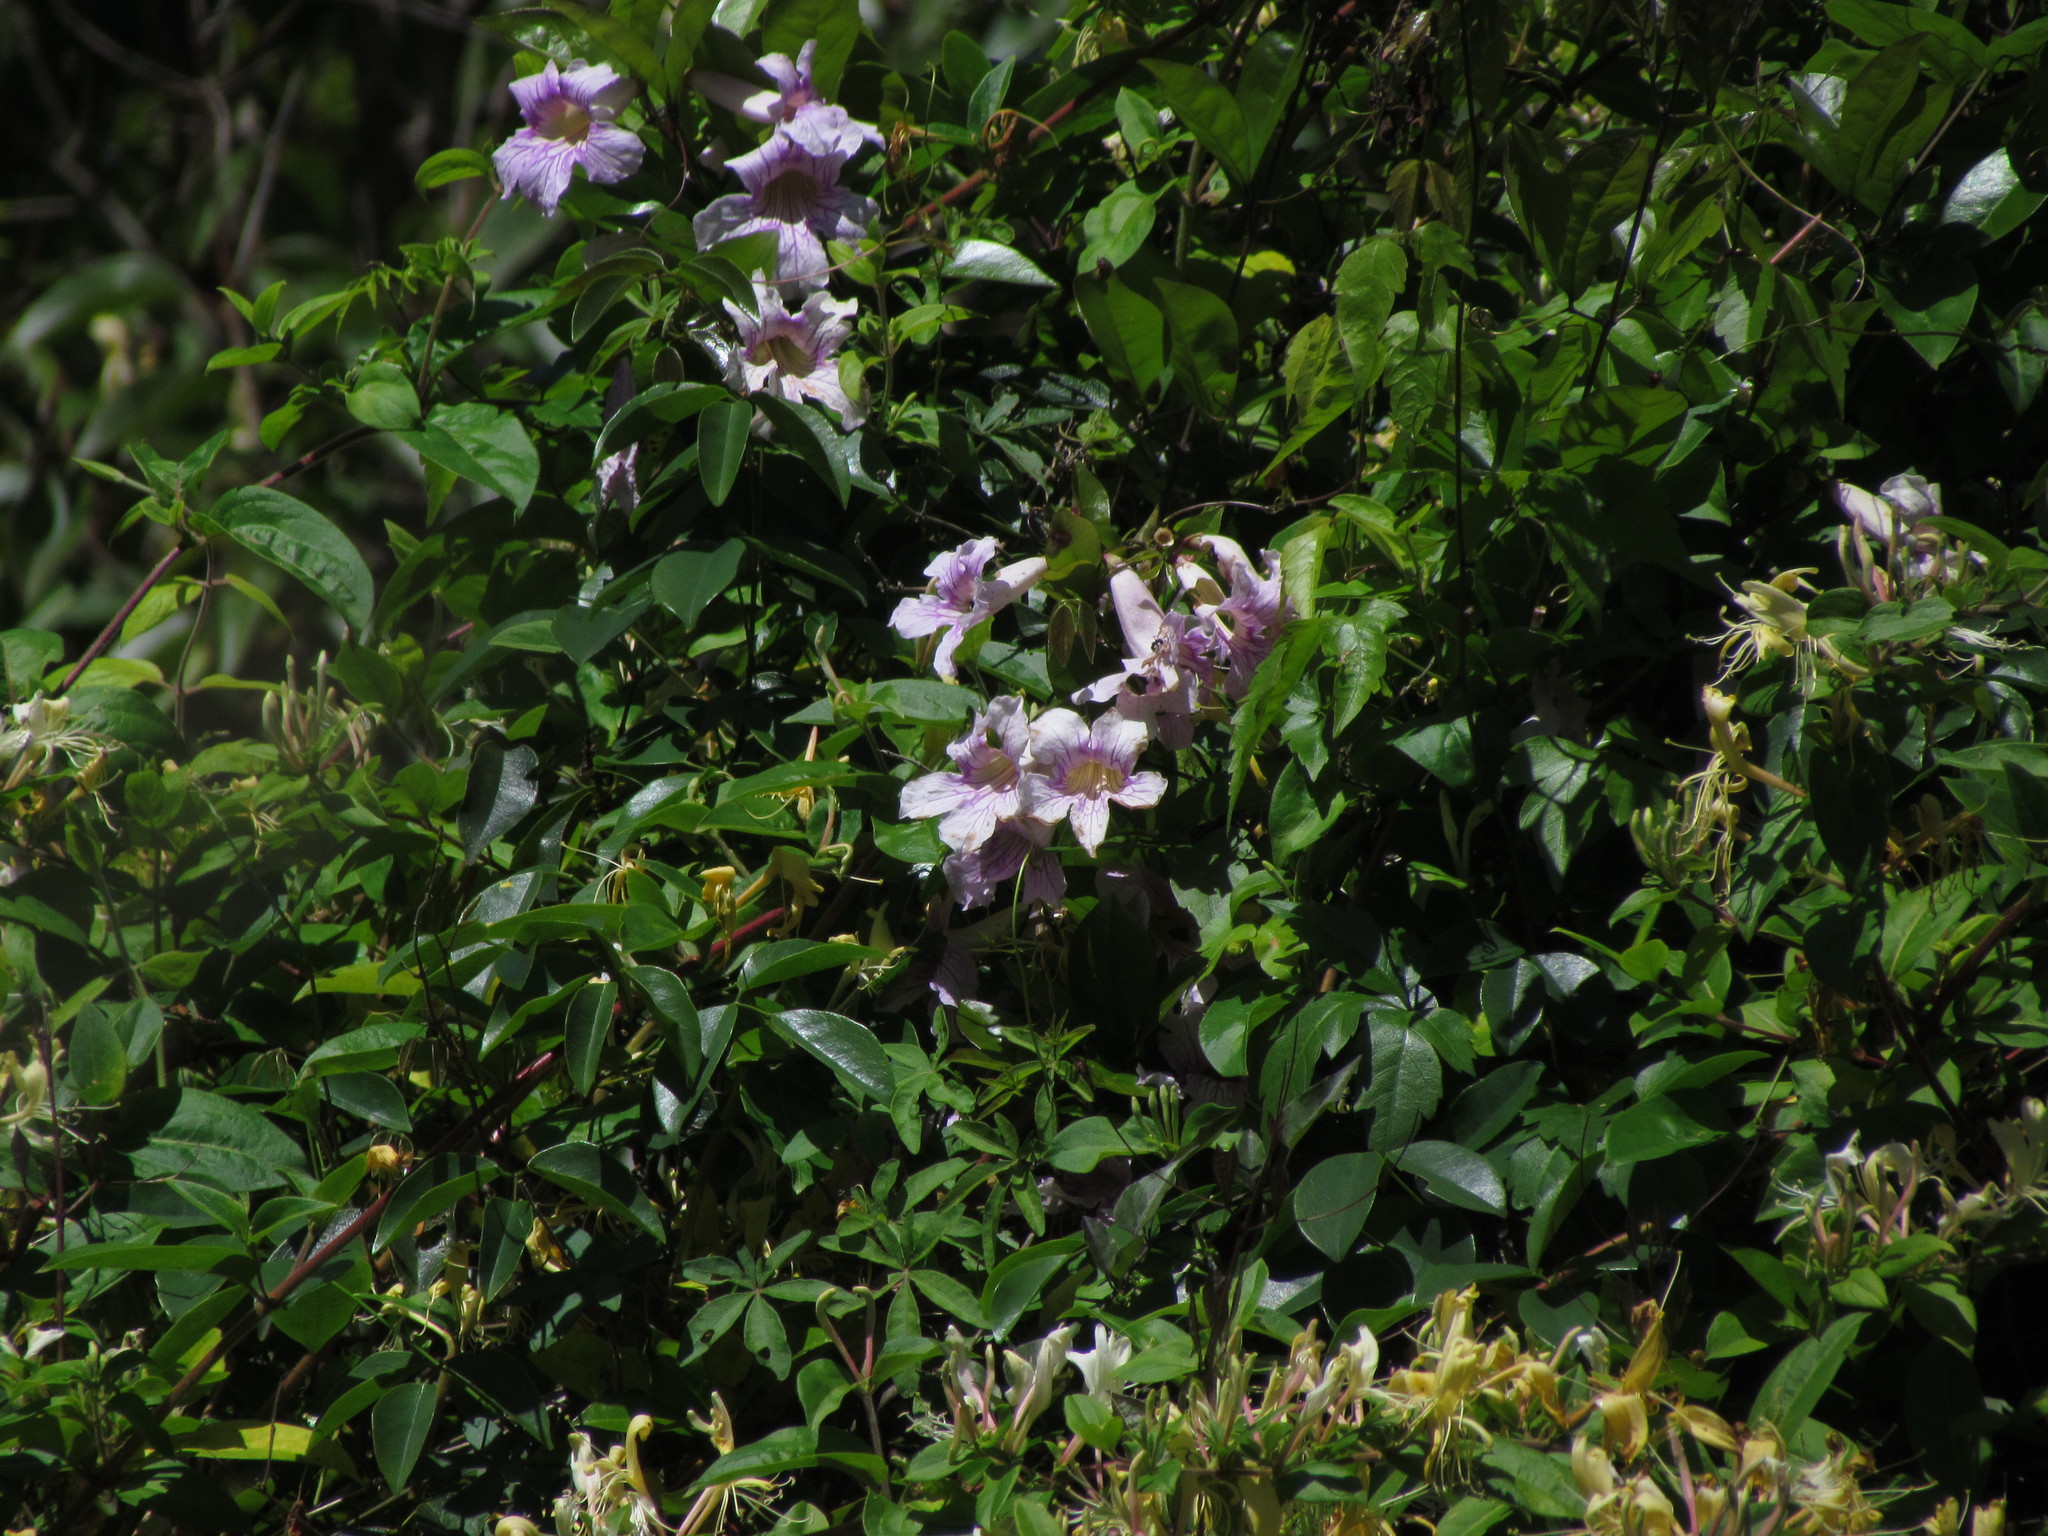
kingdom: Plantae
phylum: Tracheophyta
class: Magnoliopsida
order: Lamiales
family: Bignoniaceae
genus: Bignonia
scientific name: Bignonia callistegioides
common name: Argentine trumpetvine
